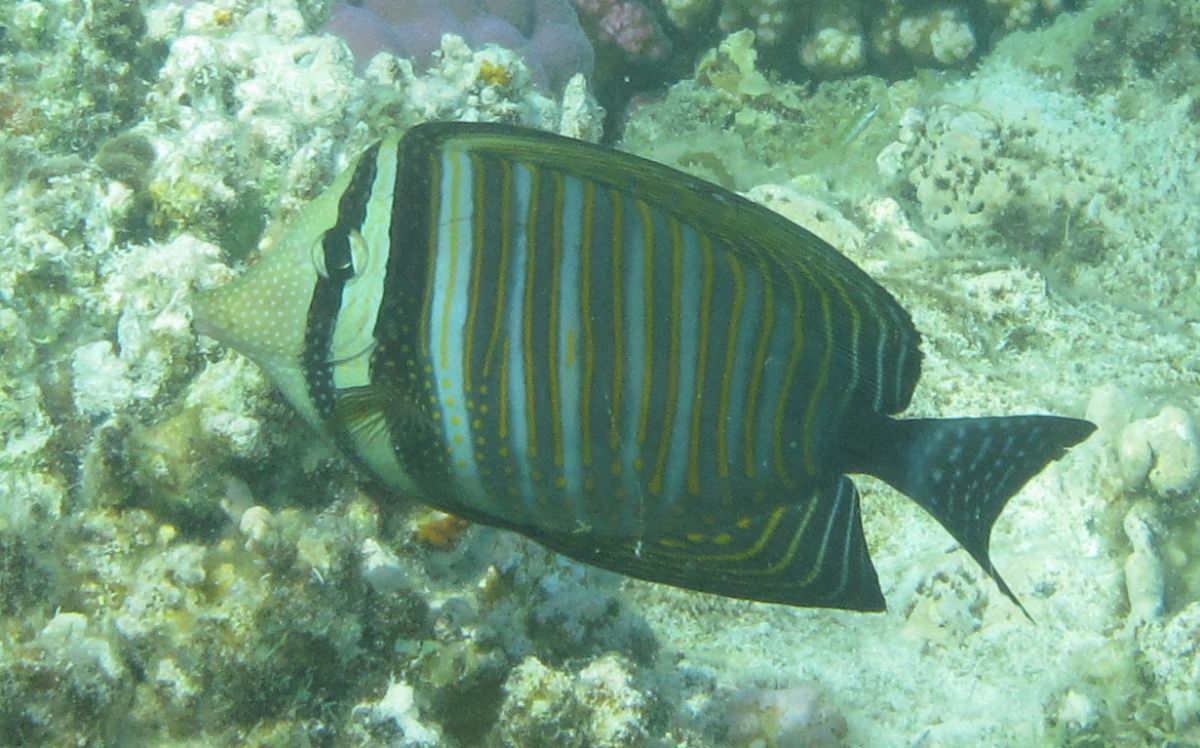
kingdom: Animalia
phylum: Chordata
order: Perciformes
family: Acanthuridae
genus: Zebrasoma
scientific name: Zebrasoma desjardinii
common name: Desjardin's sailfin tang
